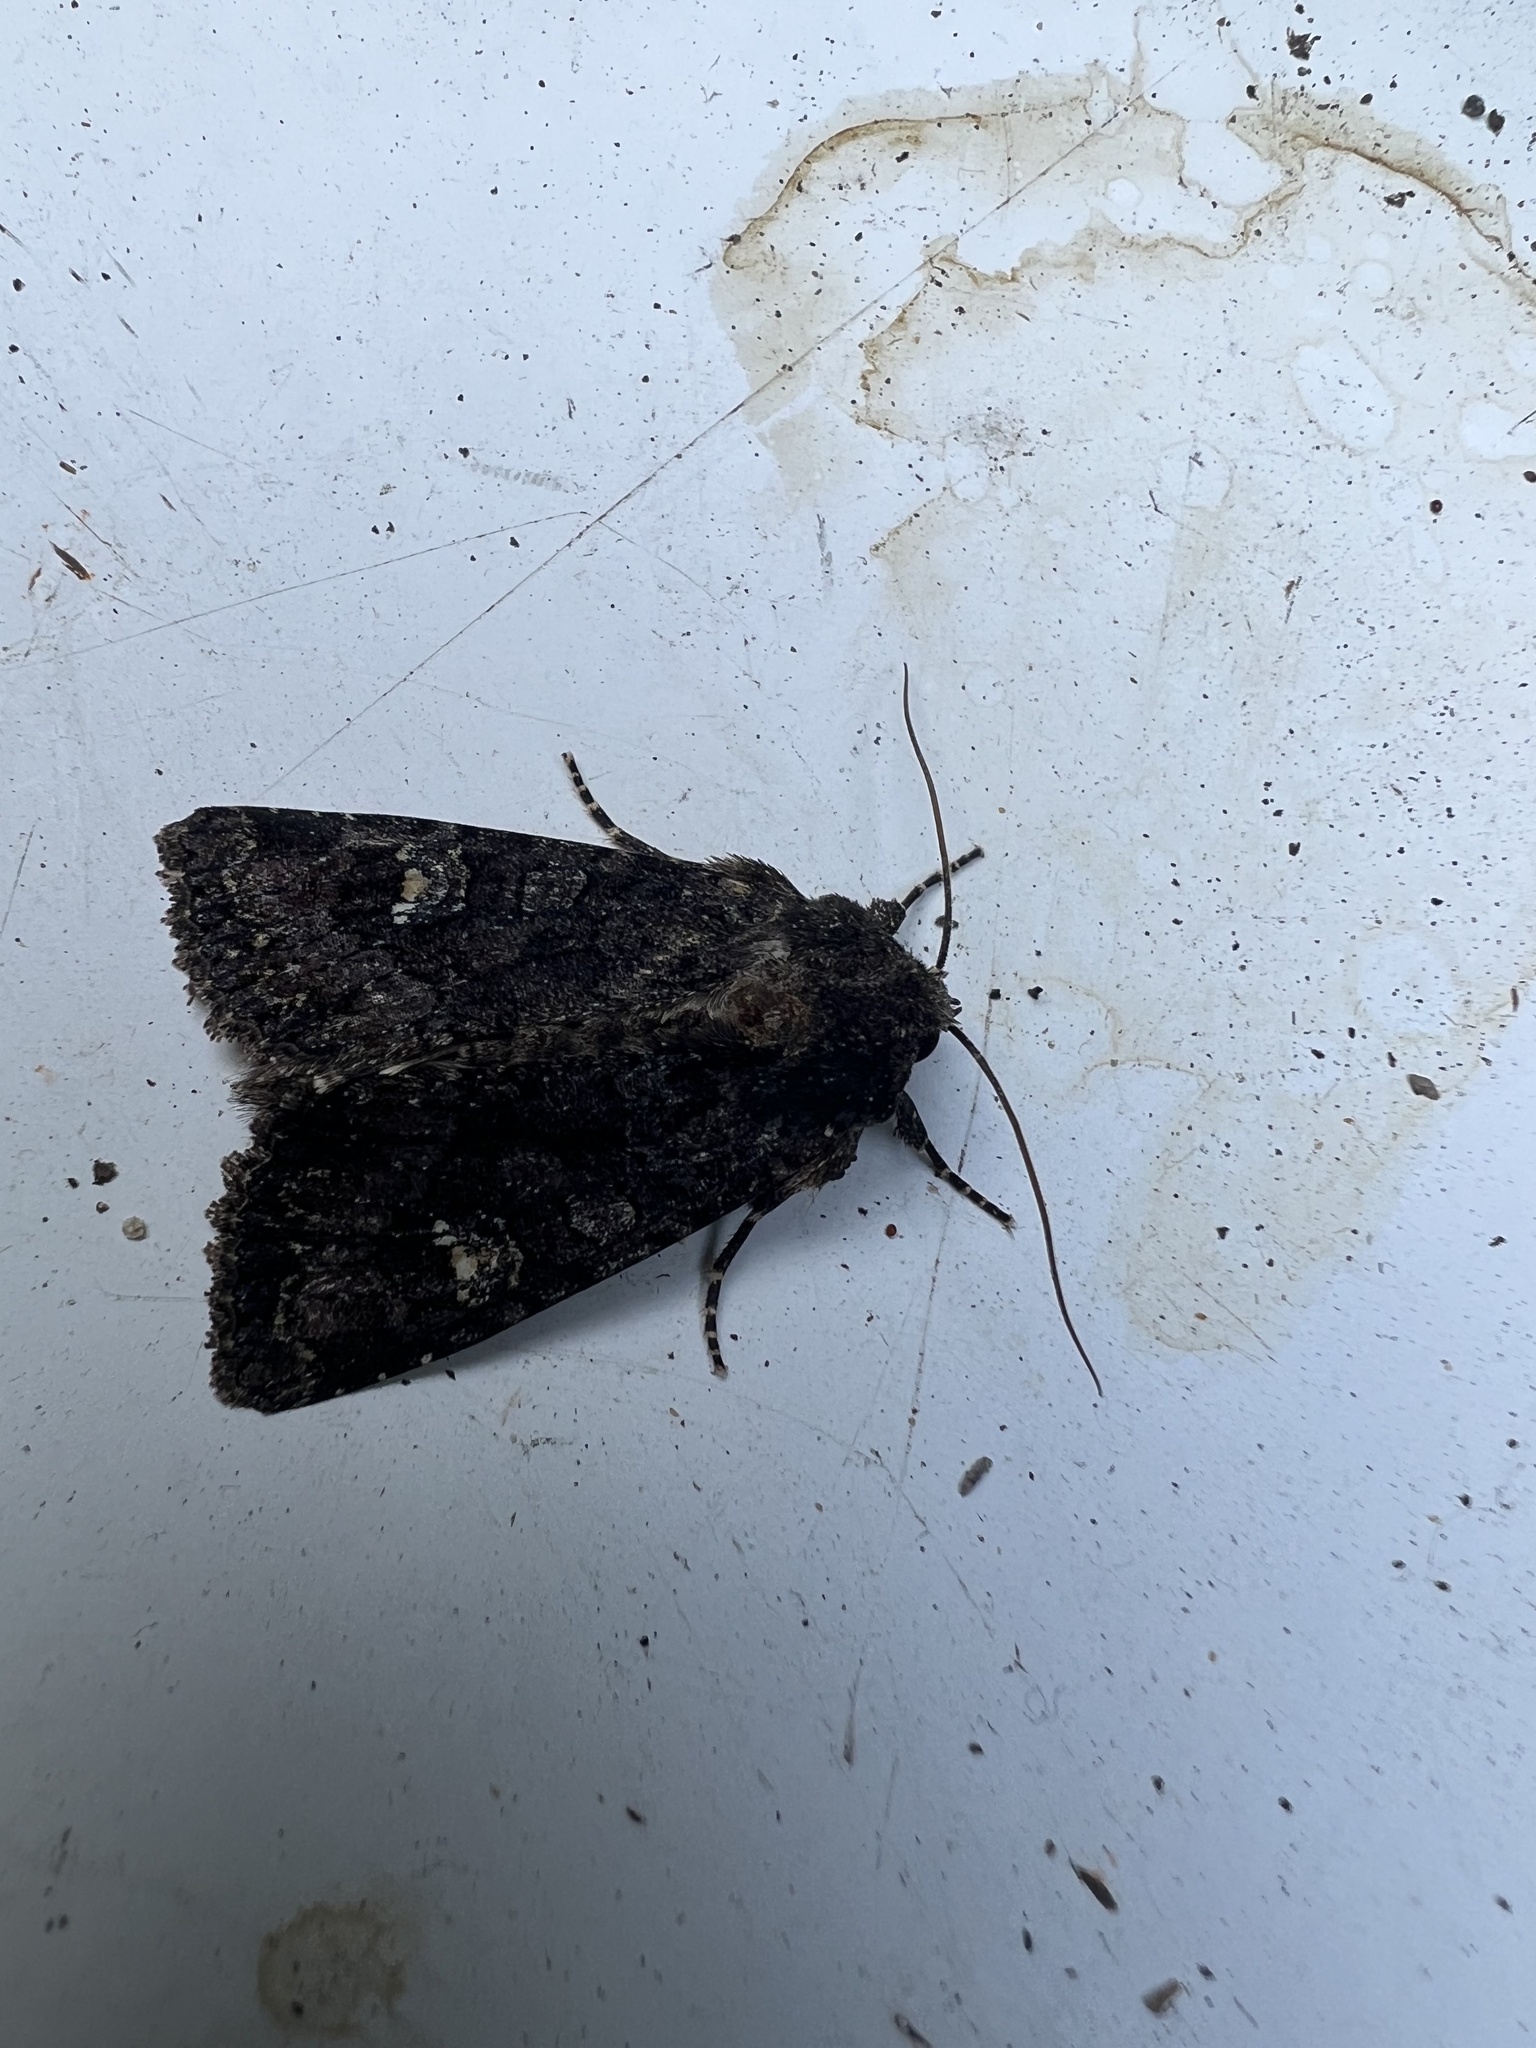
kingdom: Animalia
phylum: Arthropoda
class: Insecta
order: Lepidoptera
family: Noctuidae
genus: Apamea
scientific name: Apamea amputatrix
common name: Yellow-headed cutworm moth
